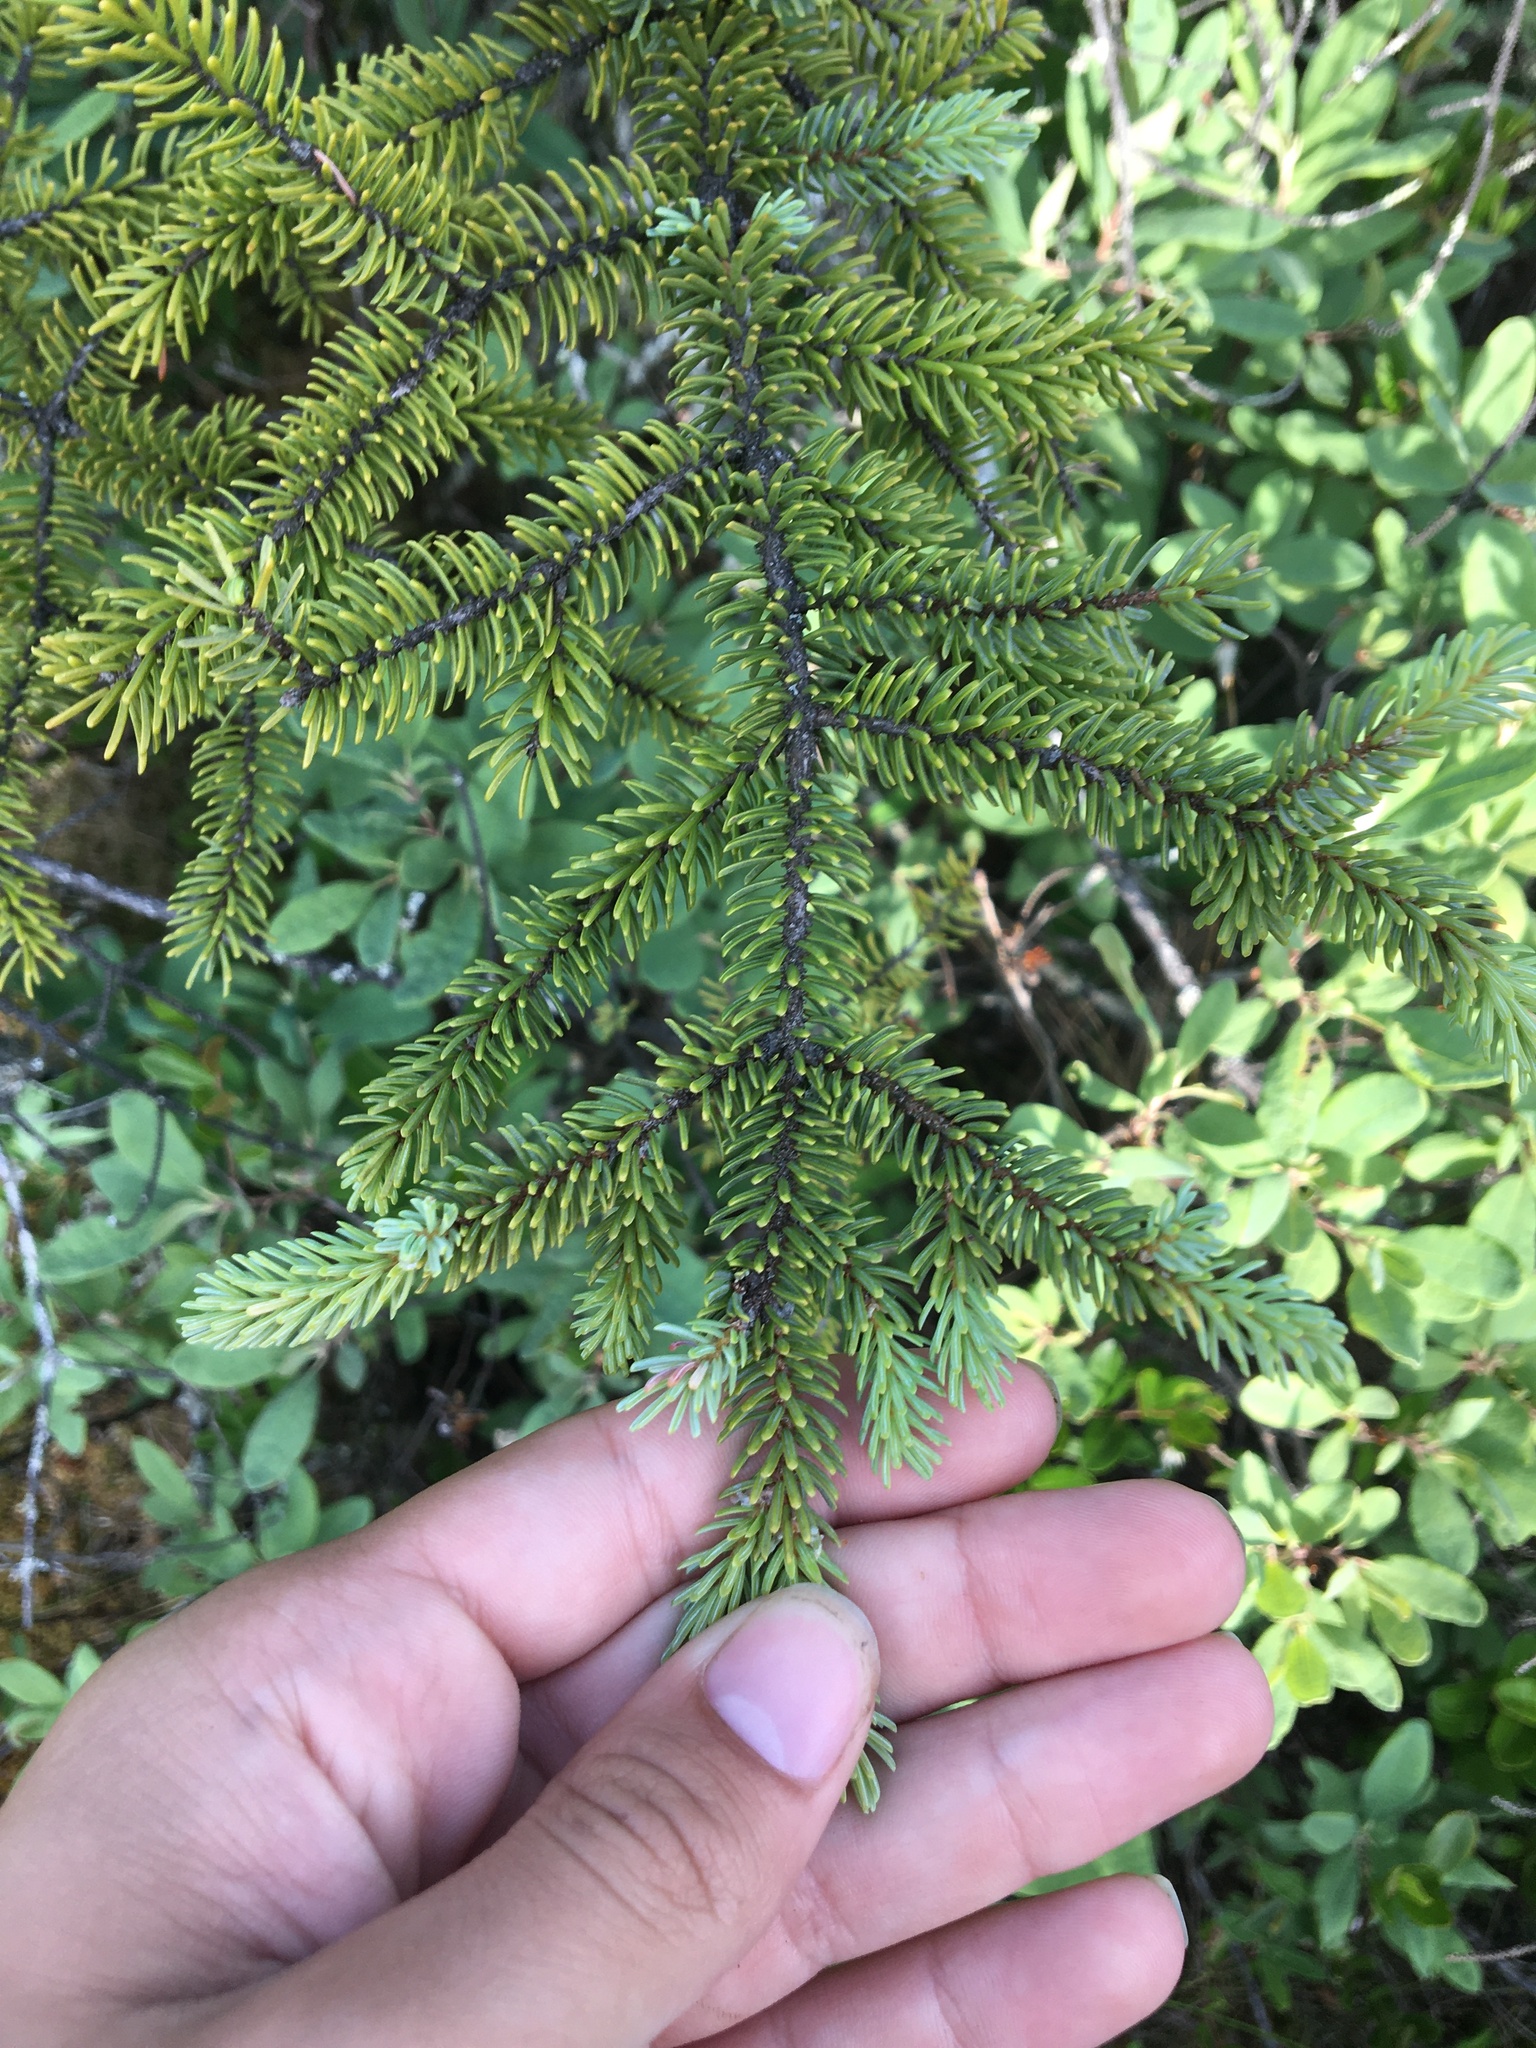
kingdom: Plantae
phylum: Tracheophyta
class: Pinopsida
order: Pinales
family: Pinaceae
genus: Picea
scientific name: Picea mariana
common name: Black spruce
